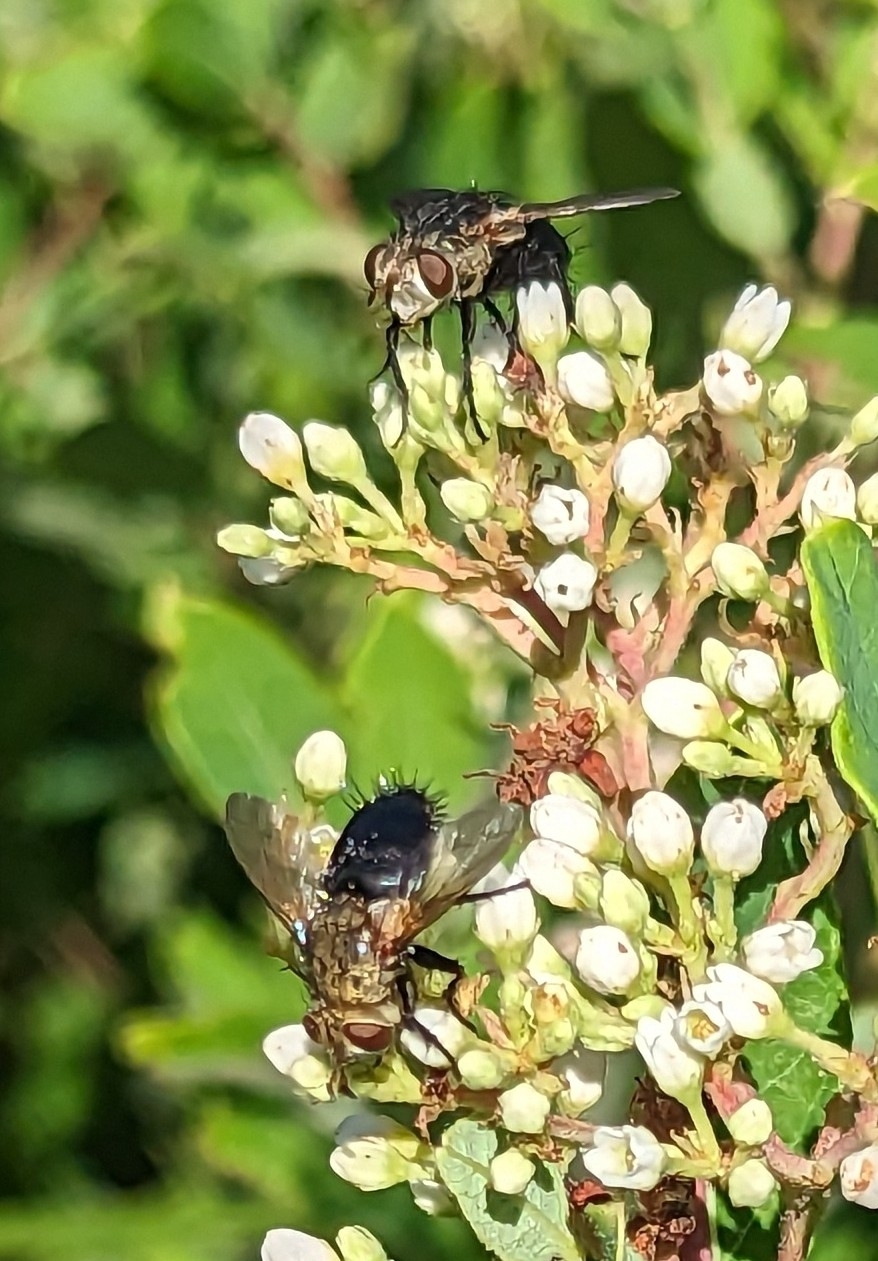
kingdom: Animalia
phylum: Arthropoda
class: Insecta
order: Diptera
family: Tachinidae
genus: Archytas
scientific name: Archytas apicifer
